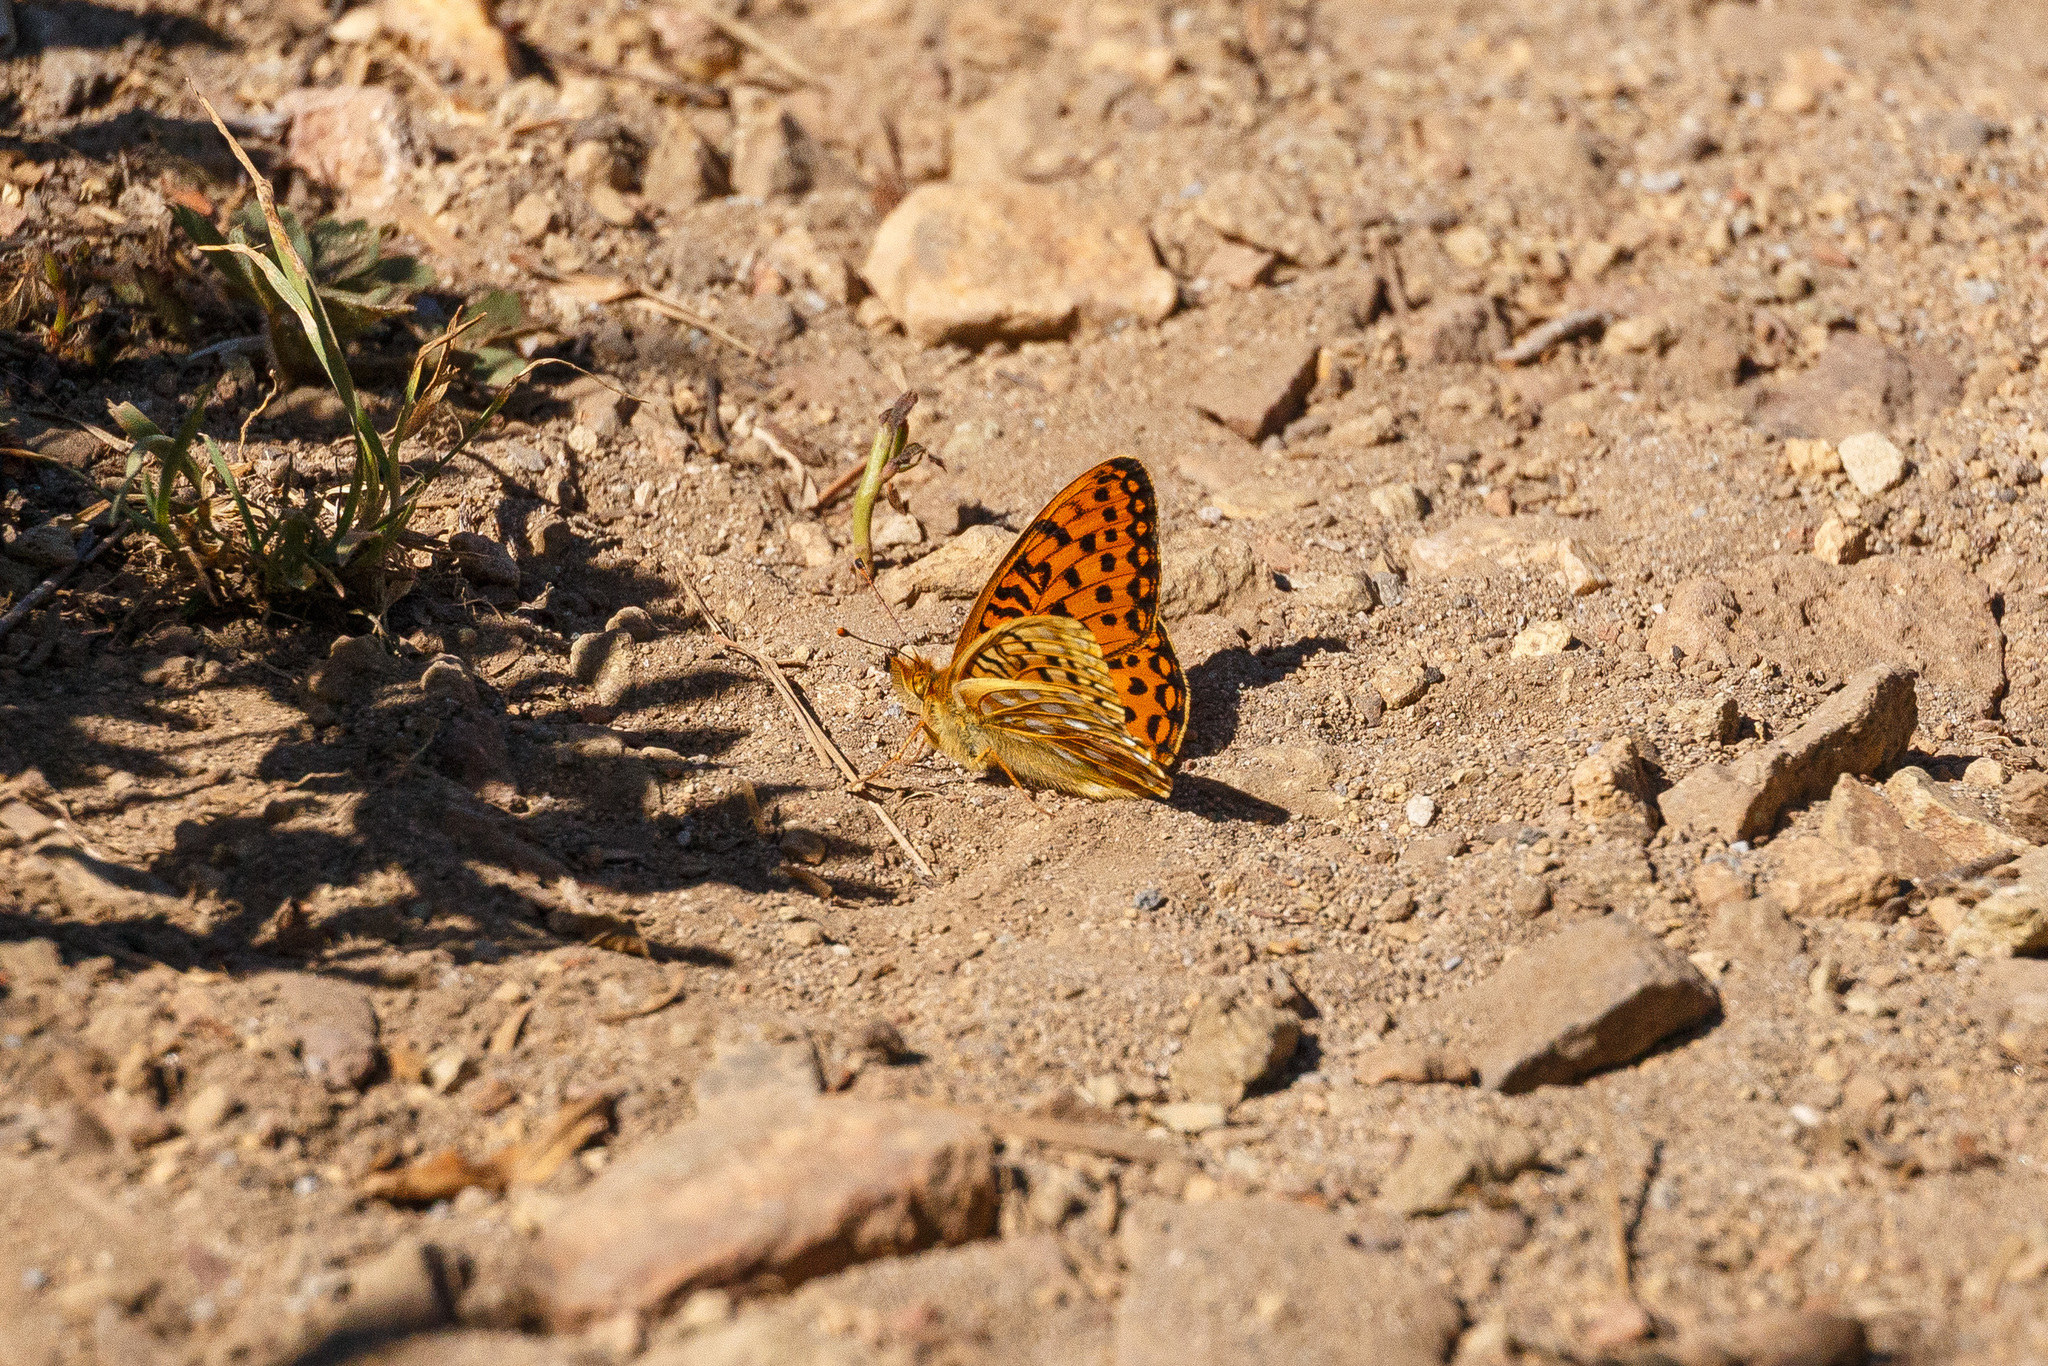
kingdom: Animalia
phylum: Arthropoda
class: Insecta
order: Lepidoptera
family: Nymphalidae
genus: Speyeria
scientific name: Speyeria mormonia
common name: Mormon fritillary
